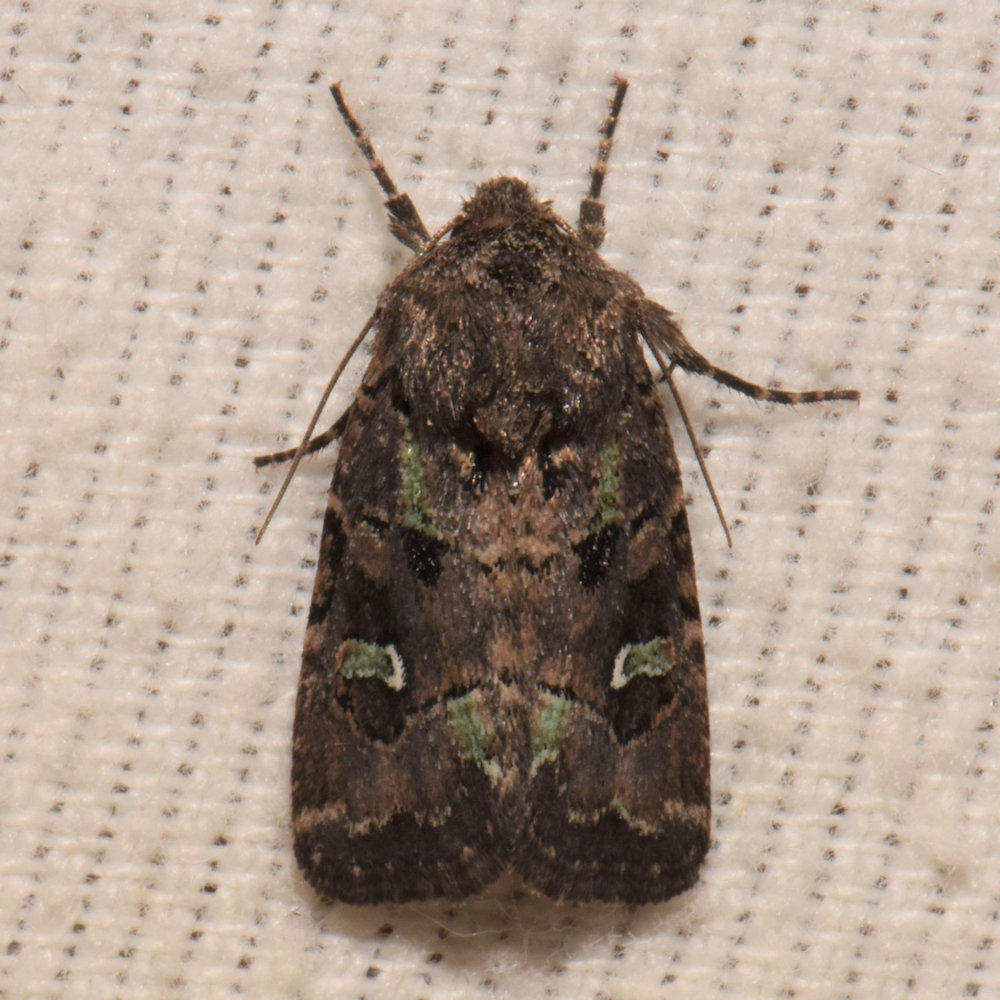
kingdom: Animalia
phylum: Arthropoda
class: Insecta
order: Lepidoptera
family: Noctuidae
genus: Lacinipolia
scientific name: Lacinipolia renigera
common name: Kidney-spotted minor
